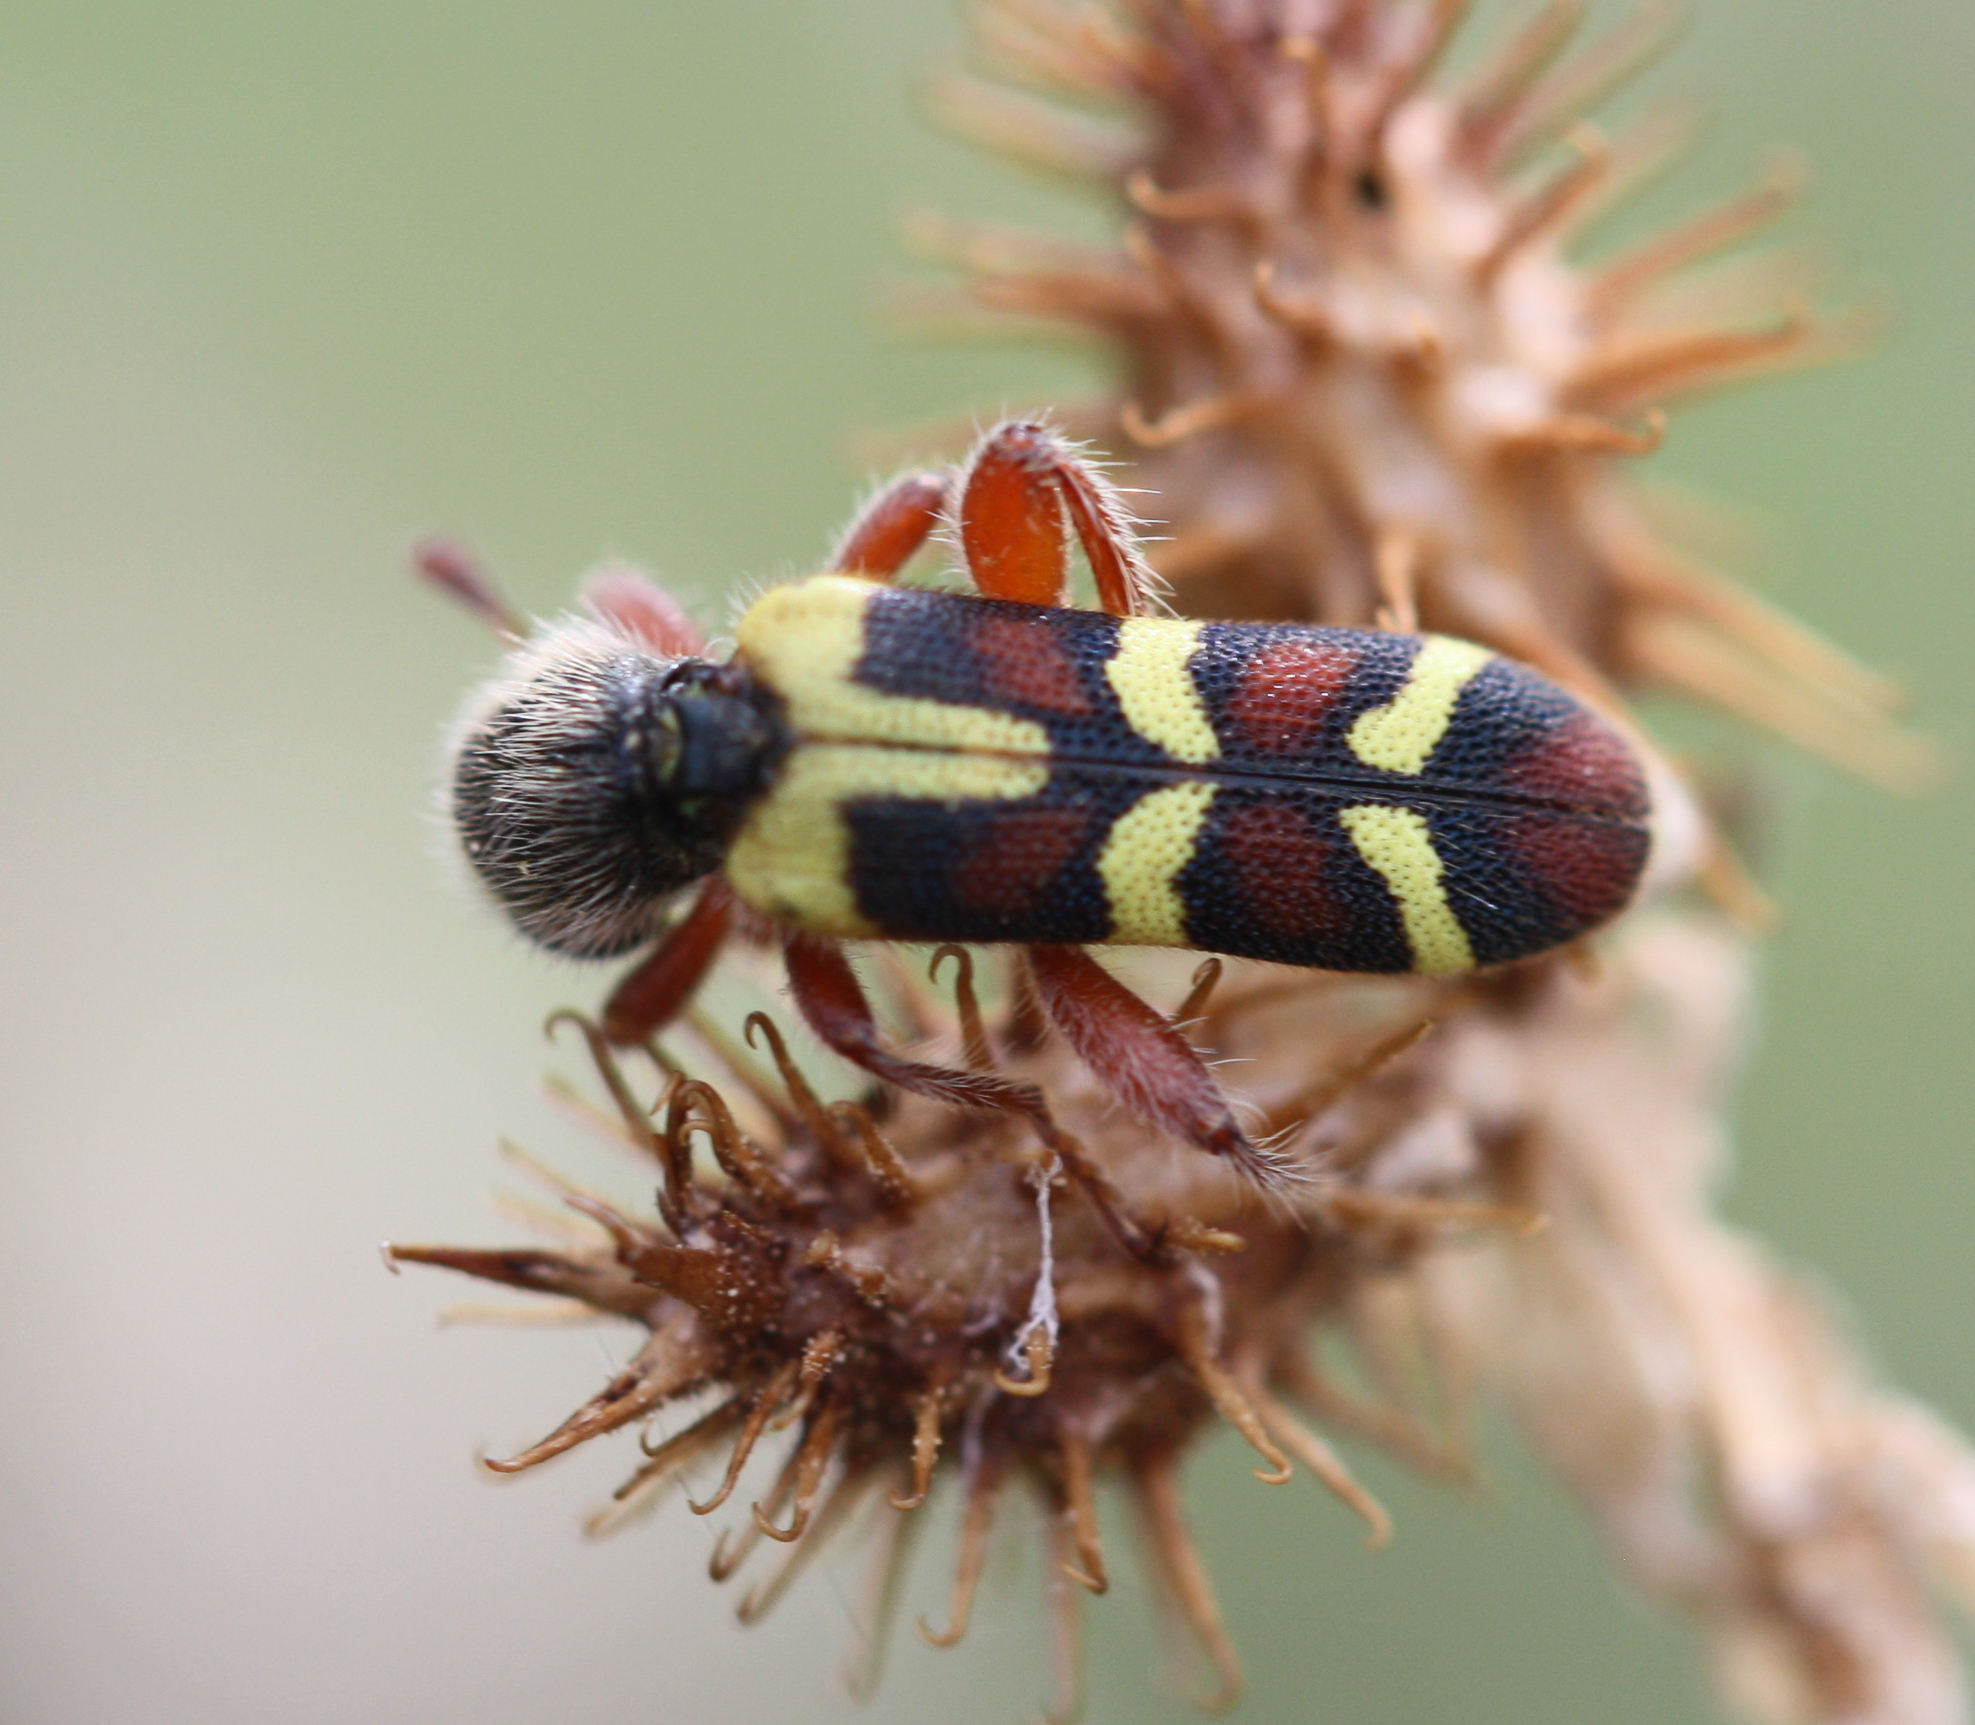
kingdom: Animalia
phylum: Arthropoda
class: Insecta
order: Coleoptera
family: Cleridae
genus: Trichodes
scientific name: Trichodes peninsularis
